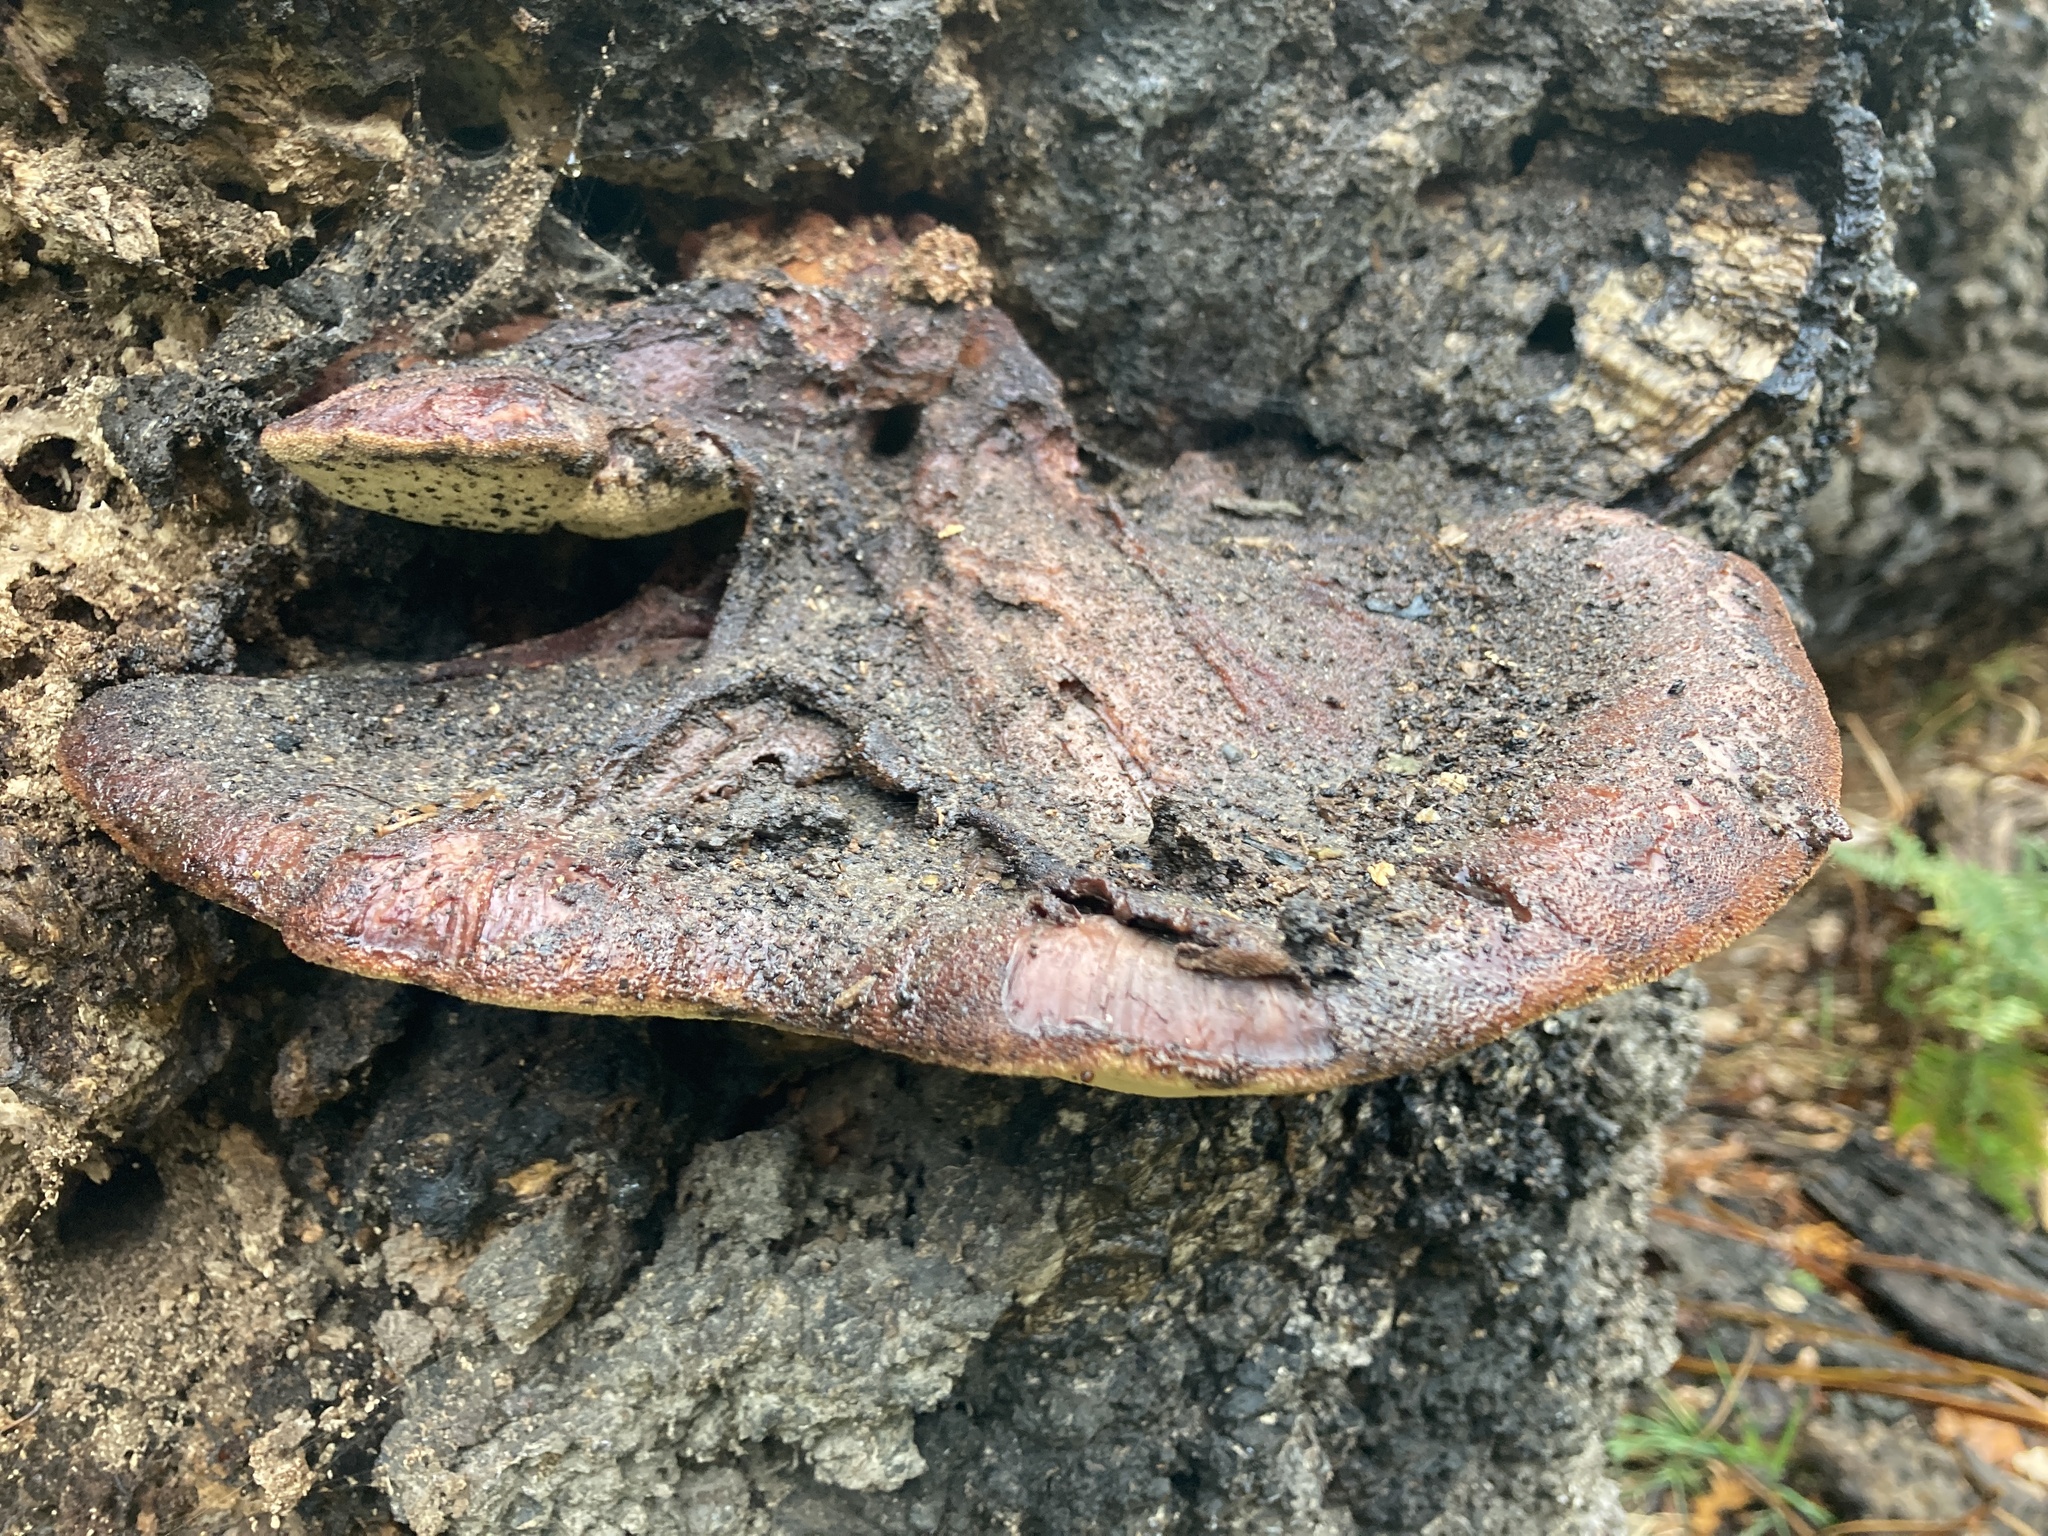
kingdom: Fungi
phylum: Basidiomycota
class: Agaricomycetes
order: Agaricales
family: Fistulinaceae
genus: Fistulina
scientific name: Fistulina hepatica
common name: Beef-steak fungus
